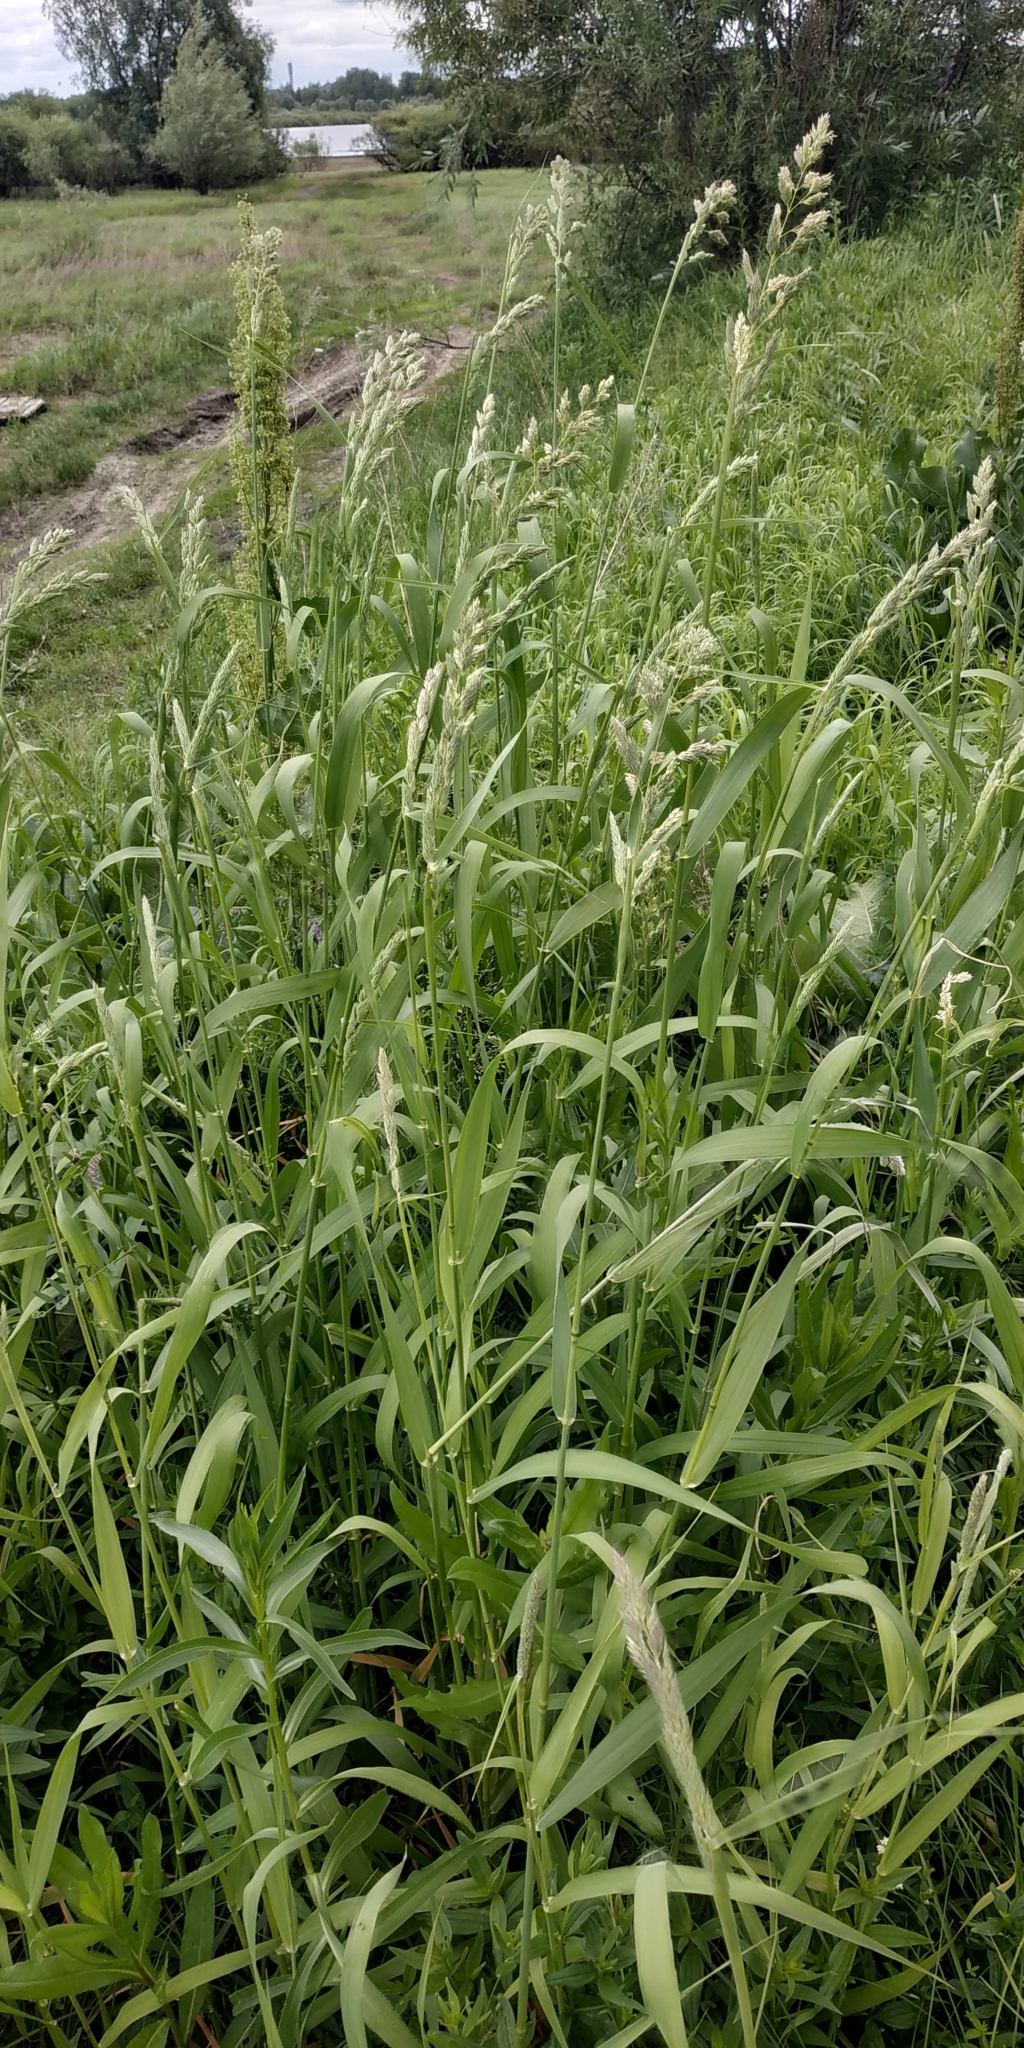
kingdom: Plantae
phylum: Tracheophyta
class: Liliopsida
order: Poales
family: Poaceae
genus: Phalaris
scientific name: Phalaris arundinacea
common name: Reed canary-grass
